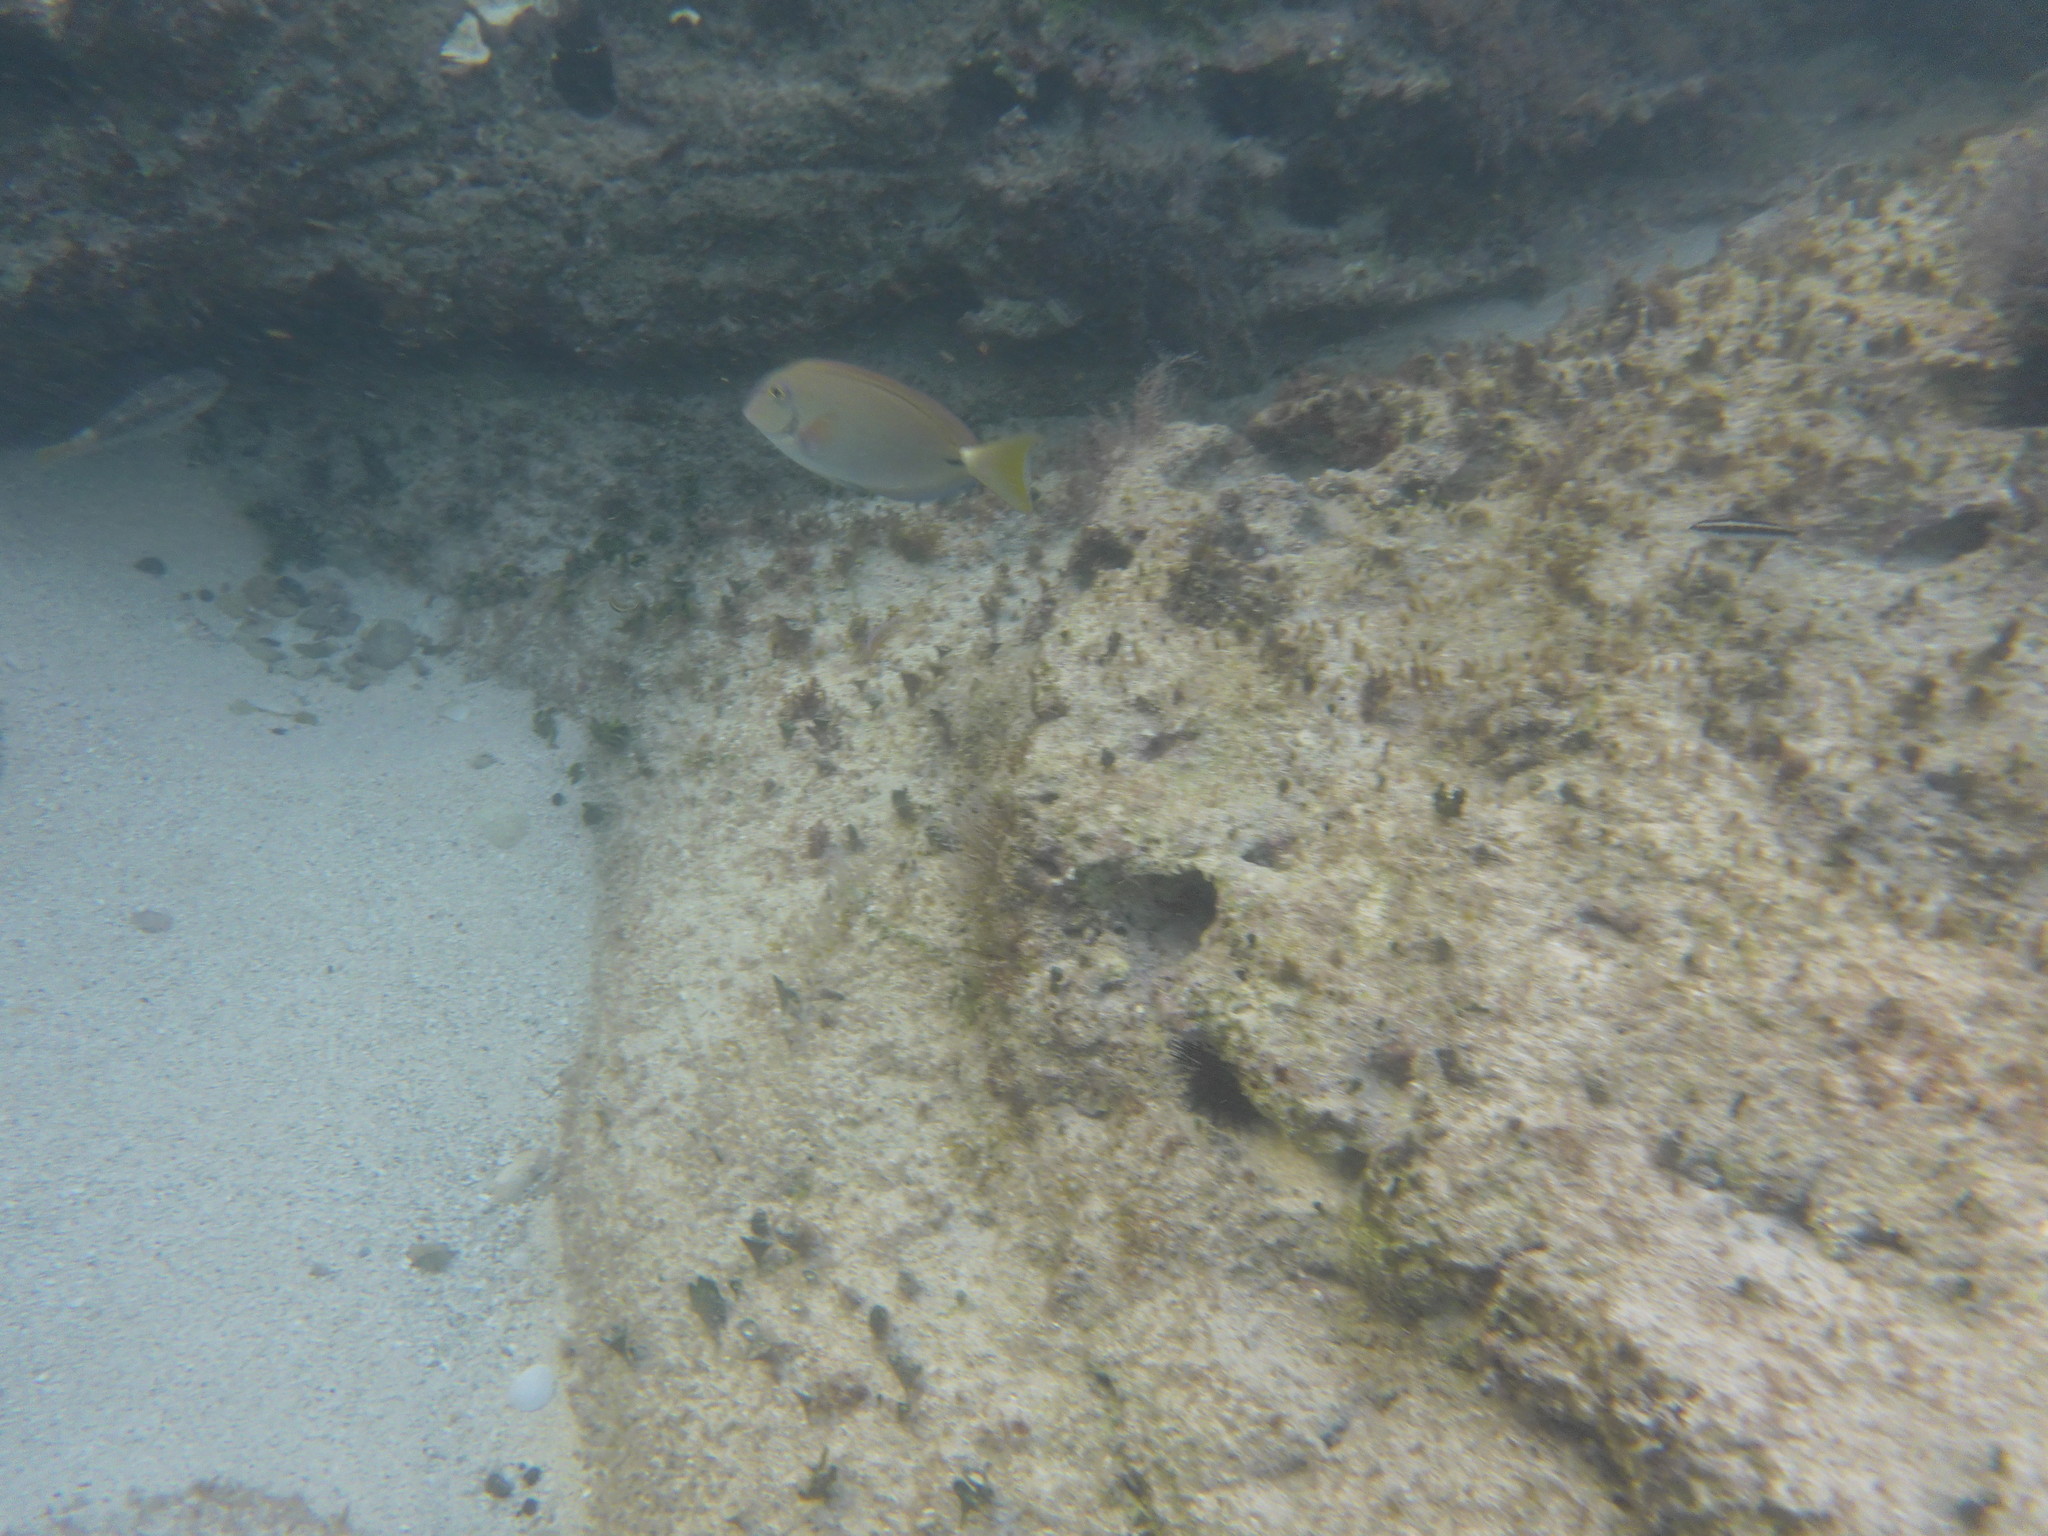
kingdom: Animalia
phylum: Chordata
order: Perciformes
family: Acanthuridae
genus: Acanthurus
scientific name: Acanthurus bahianus
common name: Ocean surgeon
